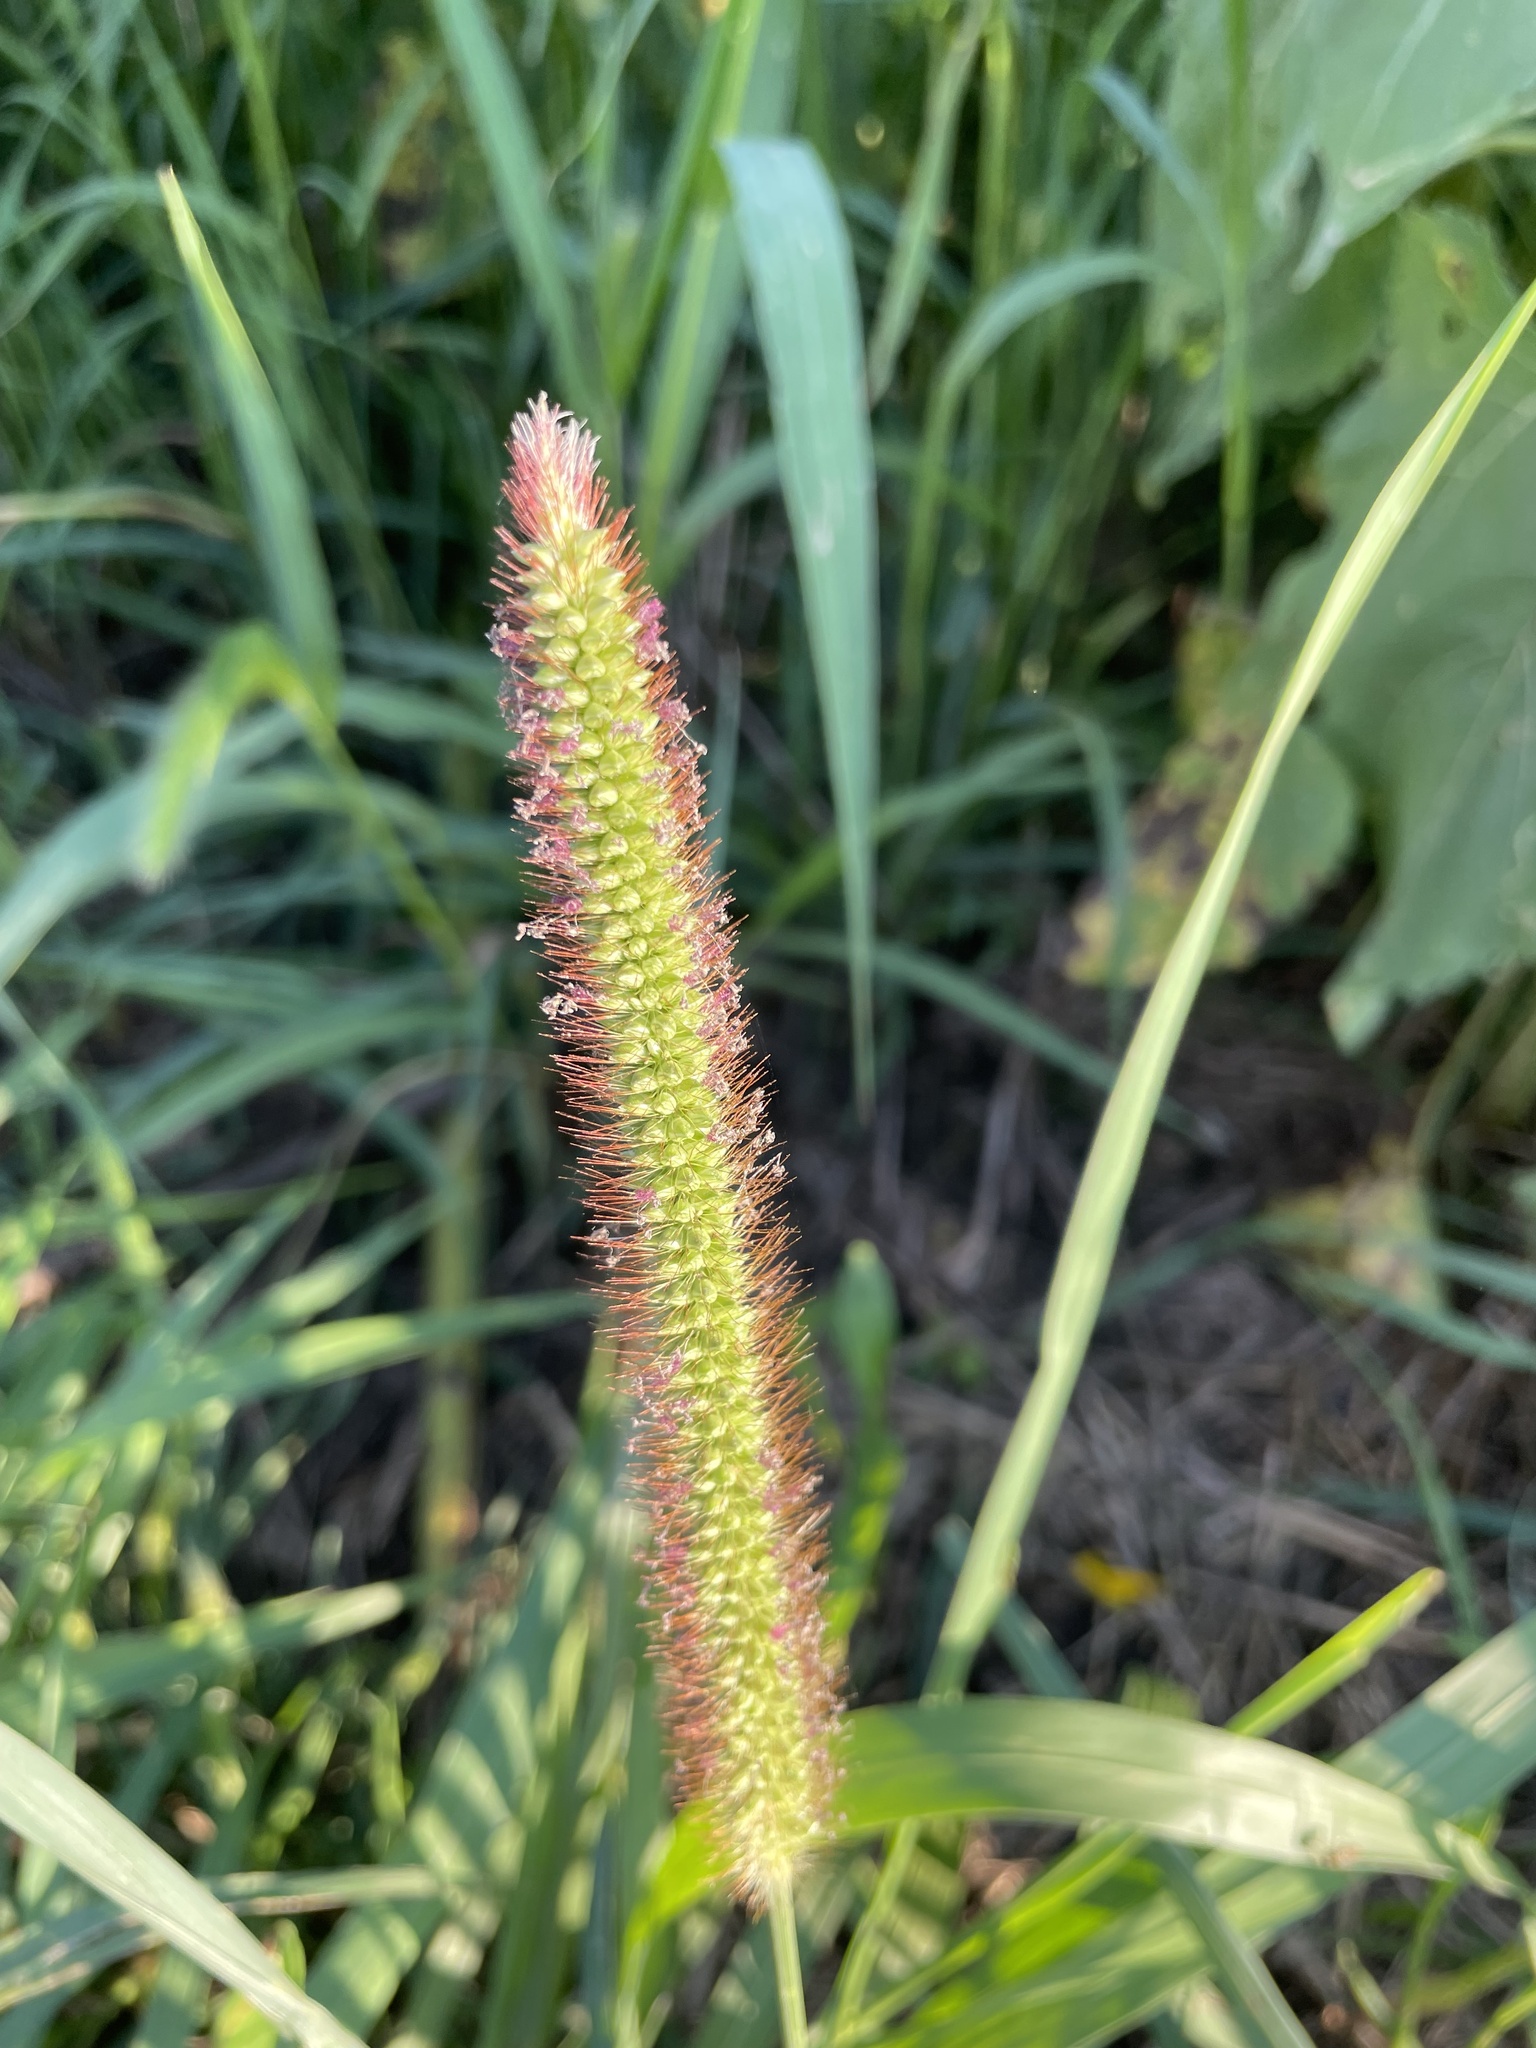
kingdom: Plantae
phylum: Tracheophyta
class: Liliopsida
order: Poales
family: Poaceae
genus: Setaria
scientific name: Setaria pumila
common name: Yellow bristle-grass
